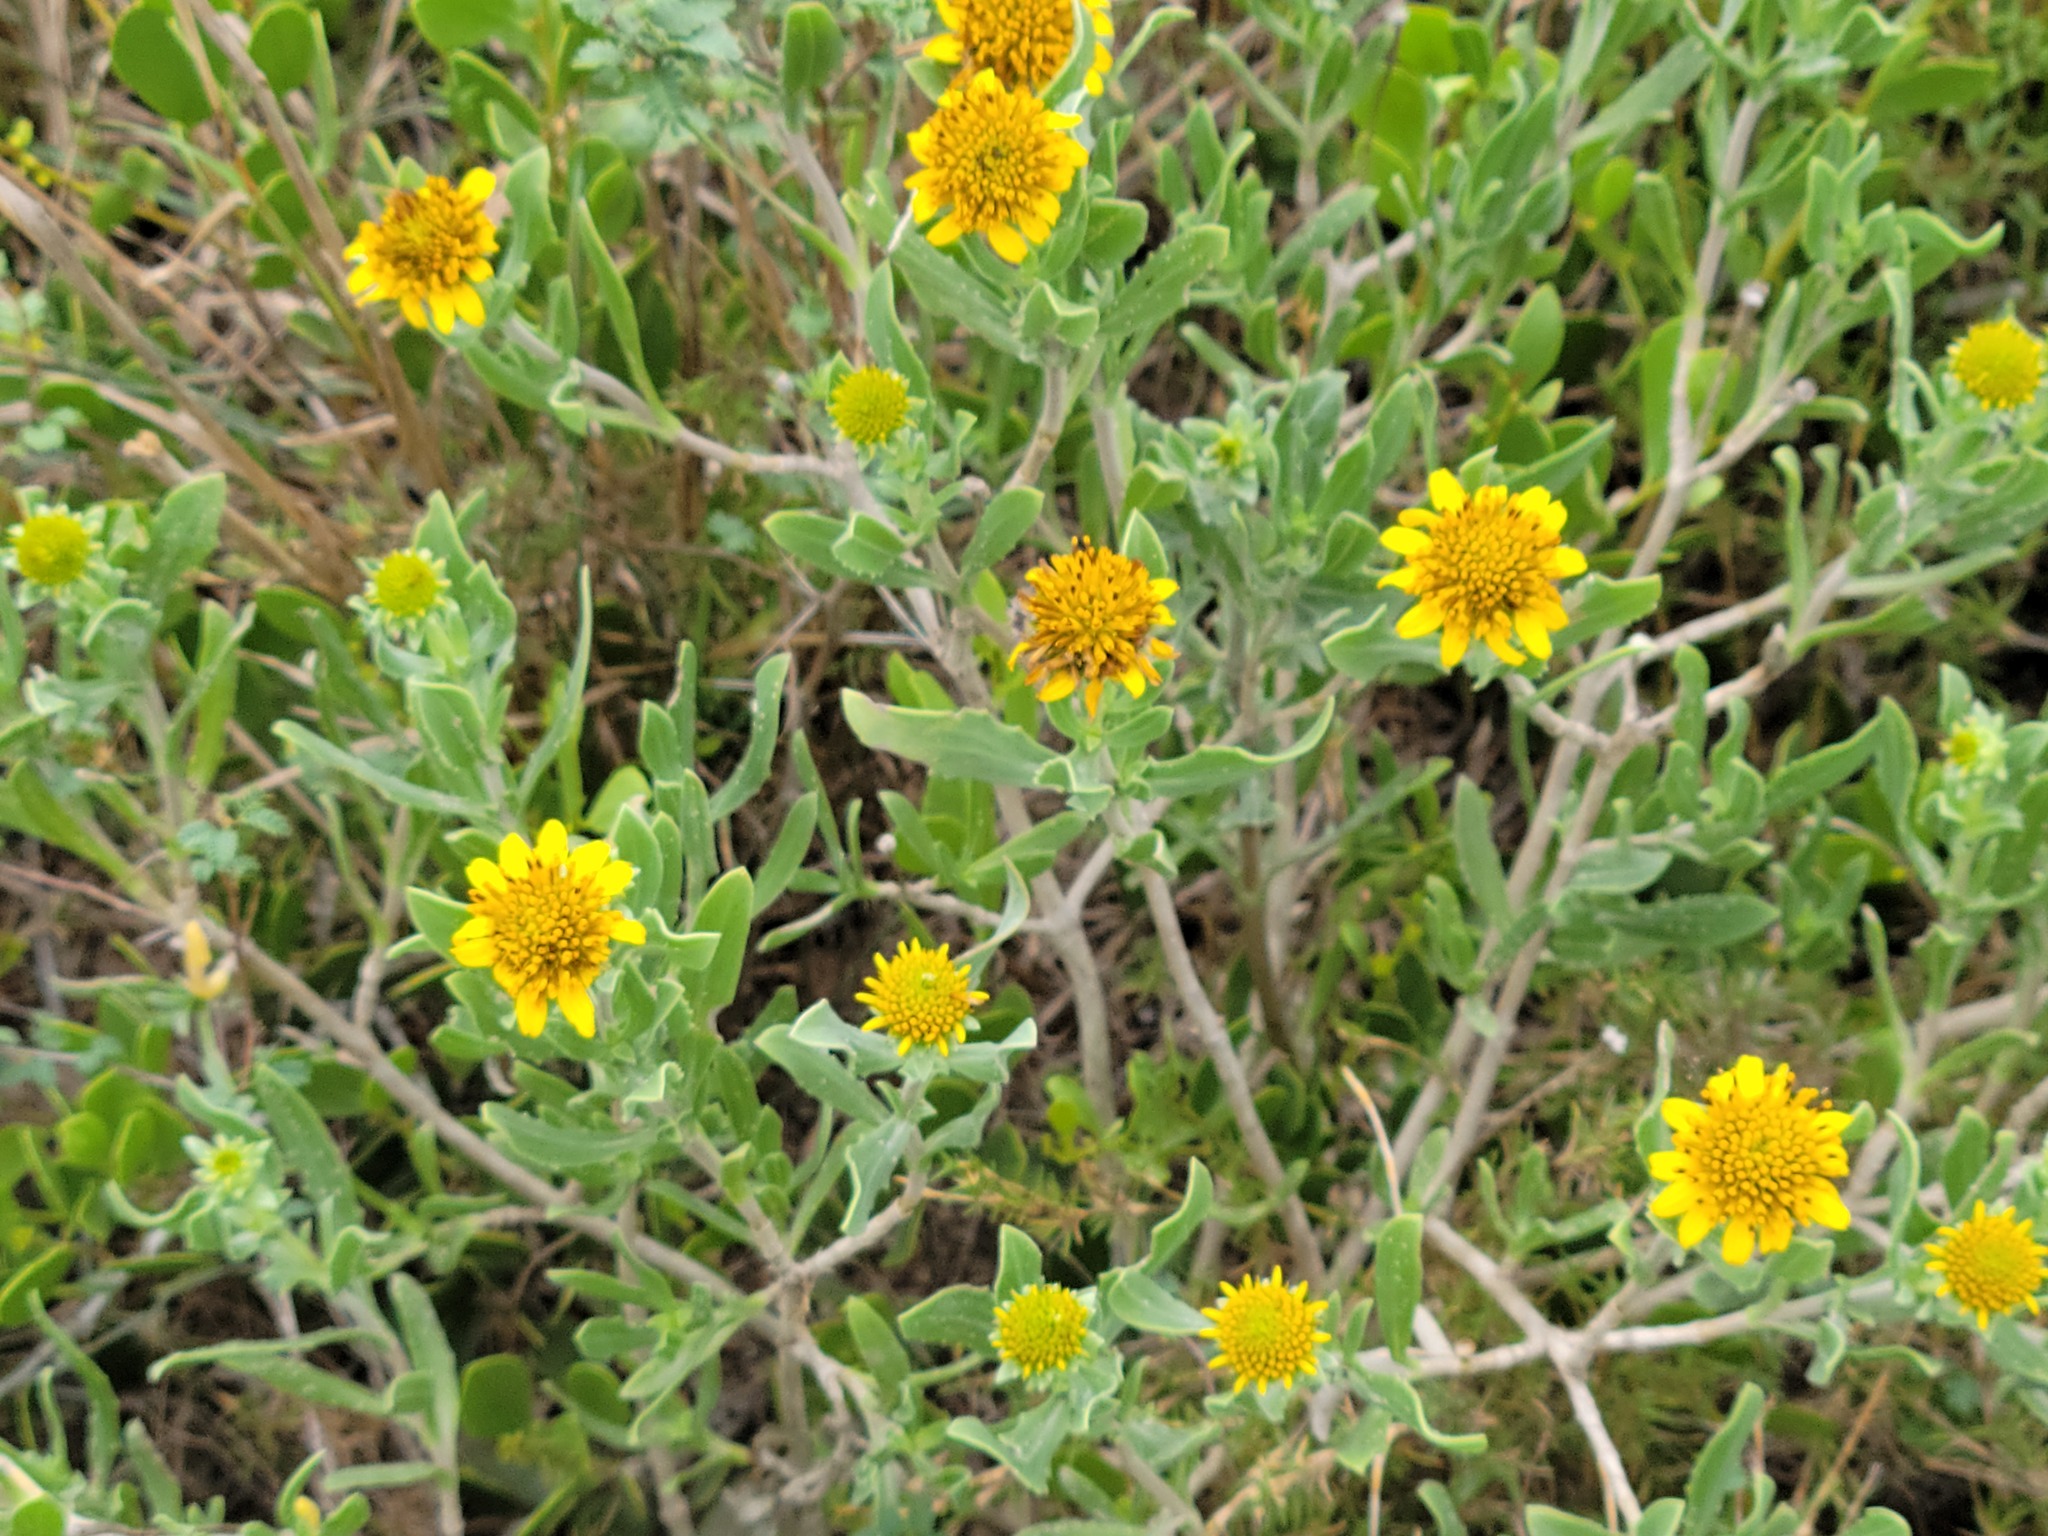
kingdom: Plantae
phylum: Tracheophyta
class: Magnoliopsida
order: Asterales
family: Asteraceae
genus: Borrichia
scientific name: Borrichia frutescens
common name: Sea oxeye
